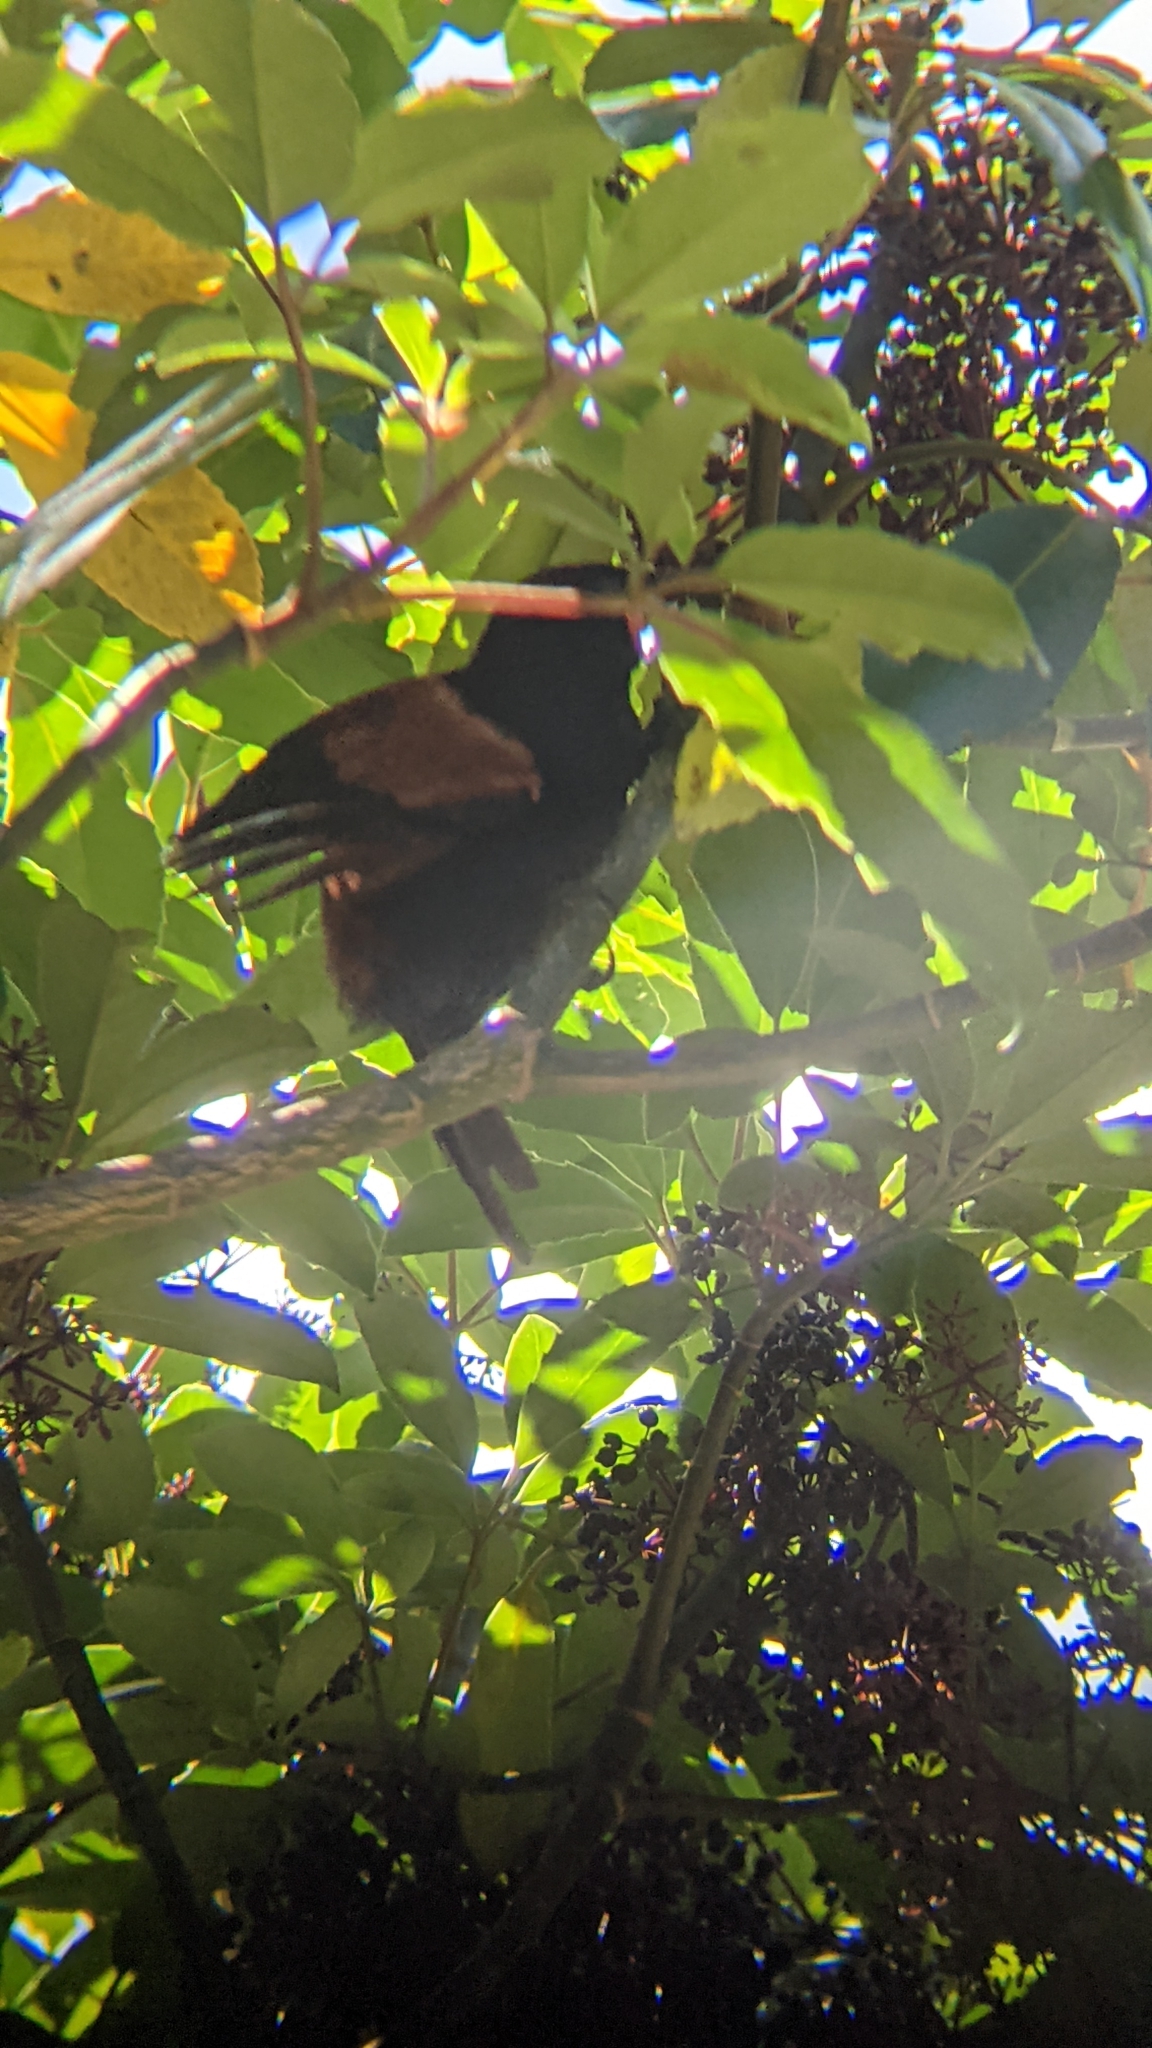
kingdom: Animalia
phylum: Chordata
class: Aves
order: Passeriformes
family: Callaeatidae
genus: Philesturnus
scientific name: Philesturnus carunculatus
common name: South island saddleback
